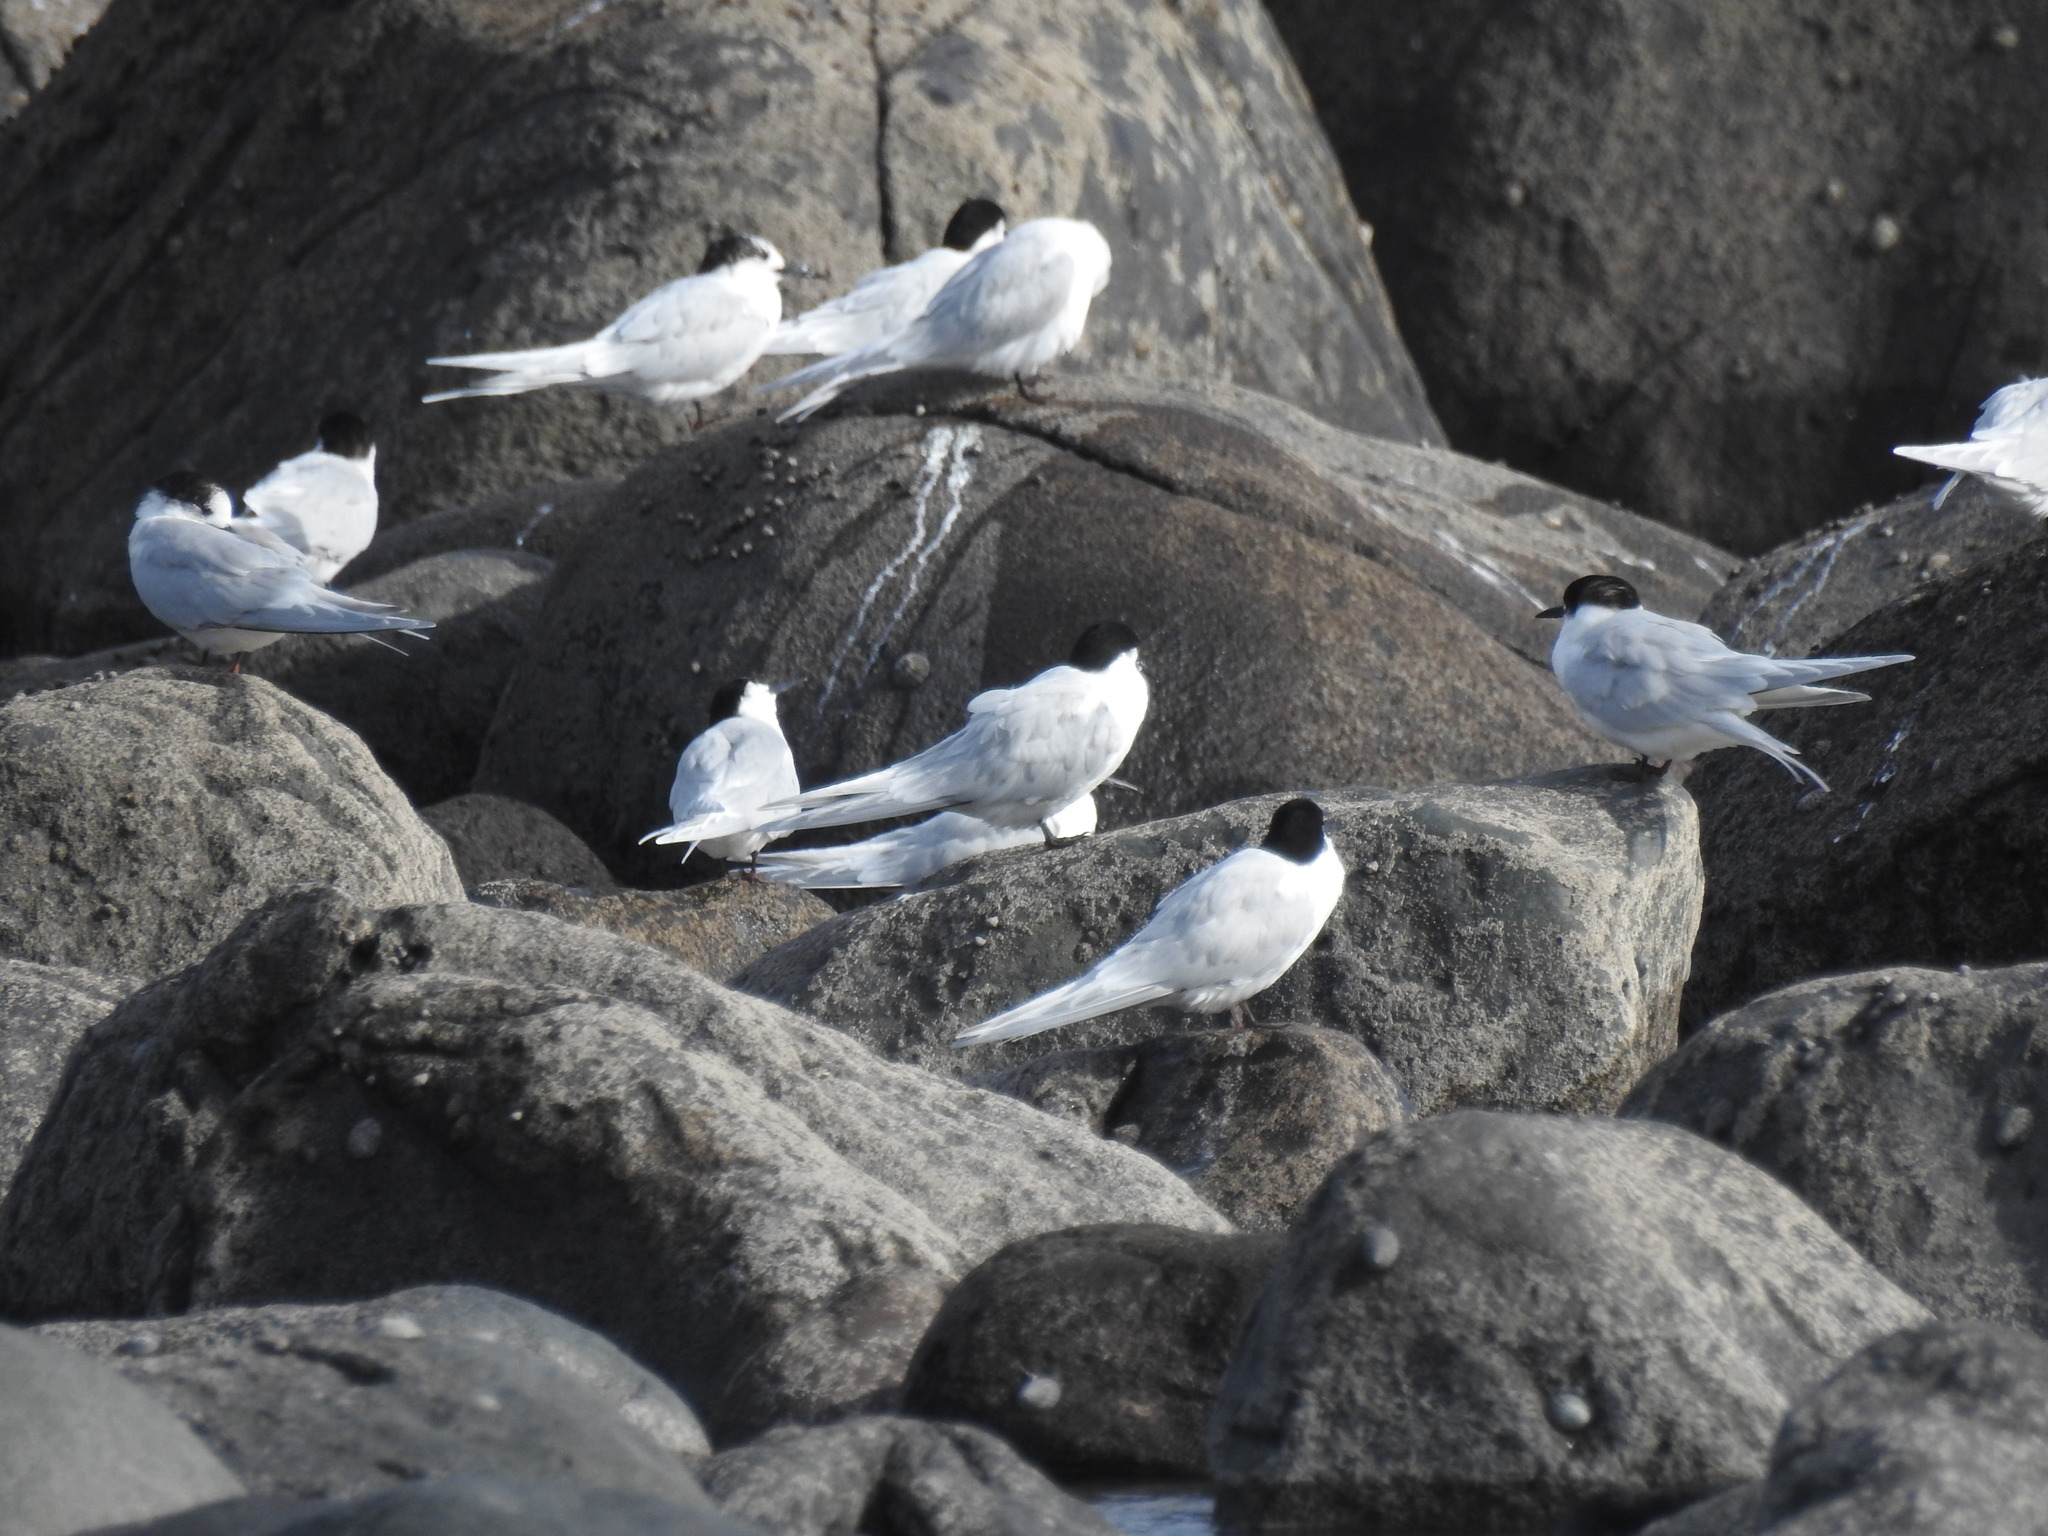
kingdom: Animalia
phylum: Chordata
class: Aves
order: Charadriiformes
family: Laridae
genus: Sterna
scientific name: Sterna striata
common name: White-fronted tern
